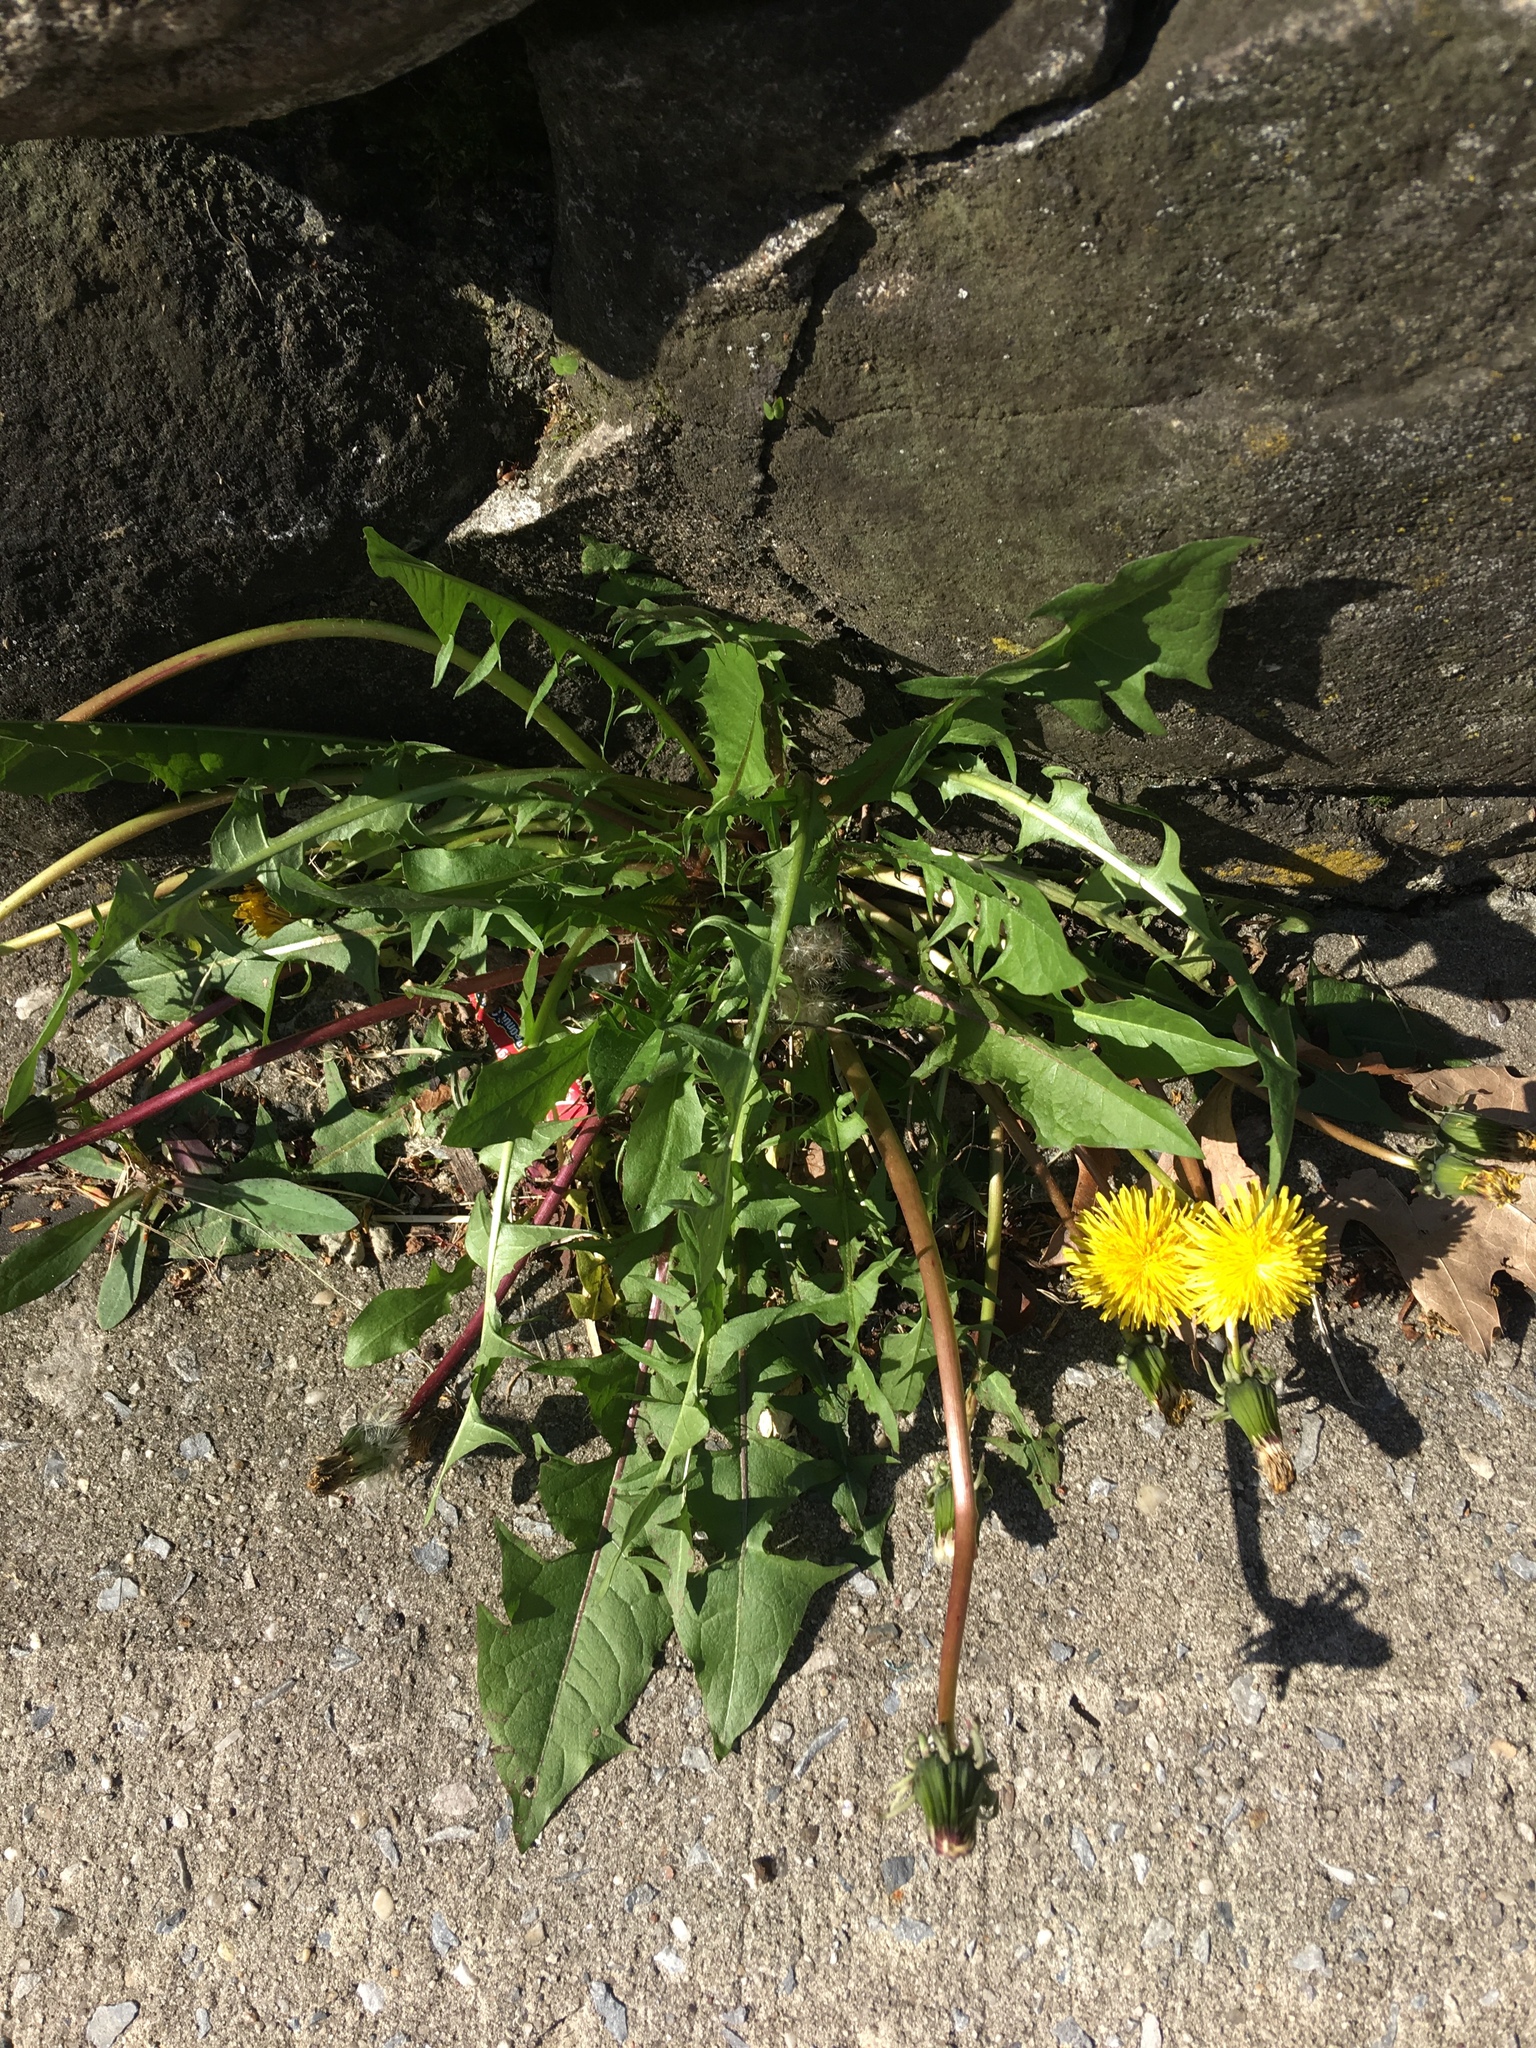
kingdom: Plantae
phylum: Tracheophyta
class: Magnoliopsida
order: Asterales
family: Asteraceae
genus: Taraxacum
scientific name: Taraxacum officinale
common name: Common dandelion
